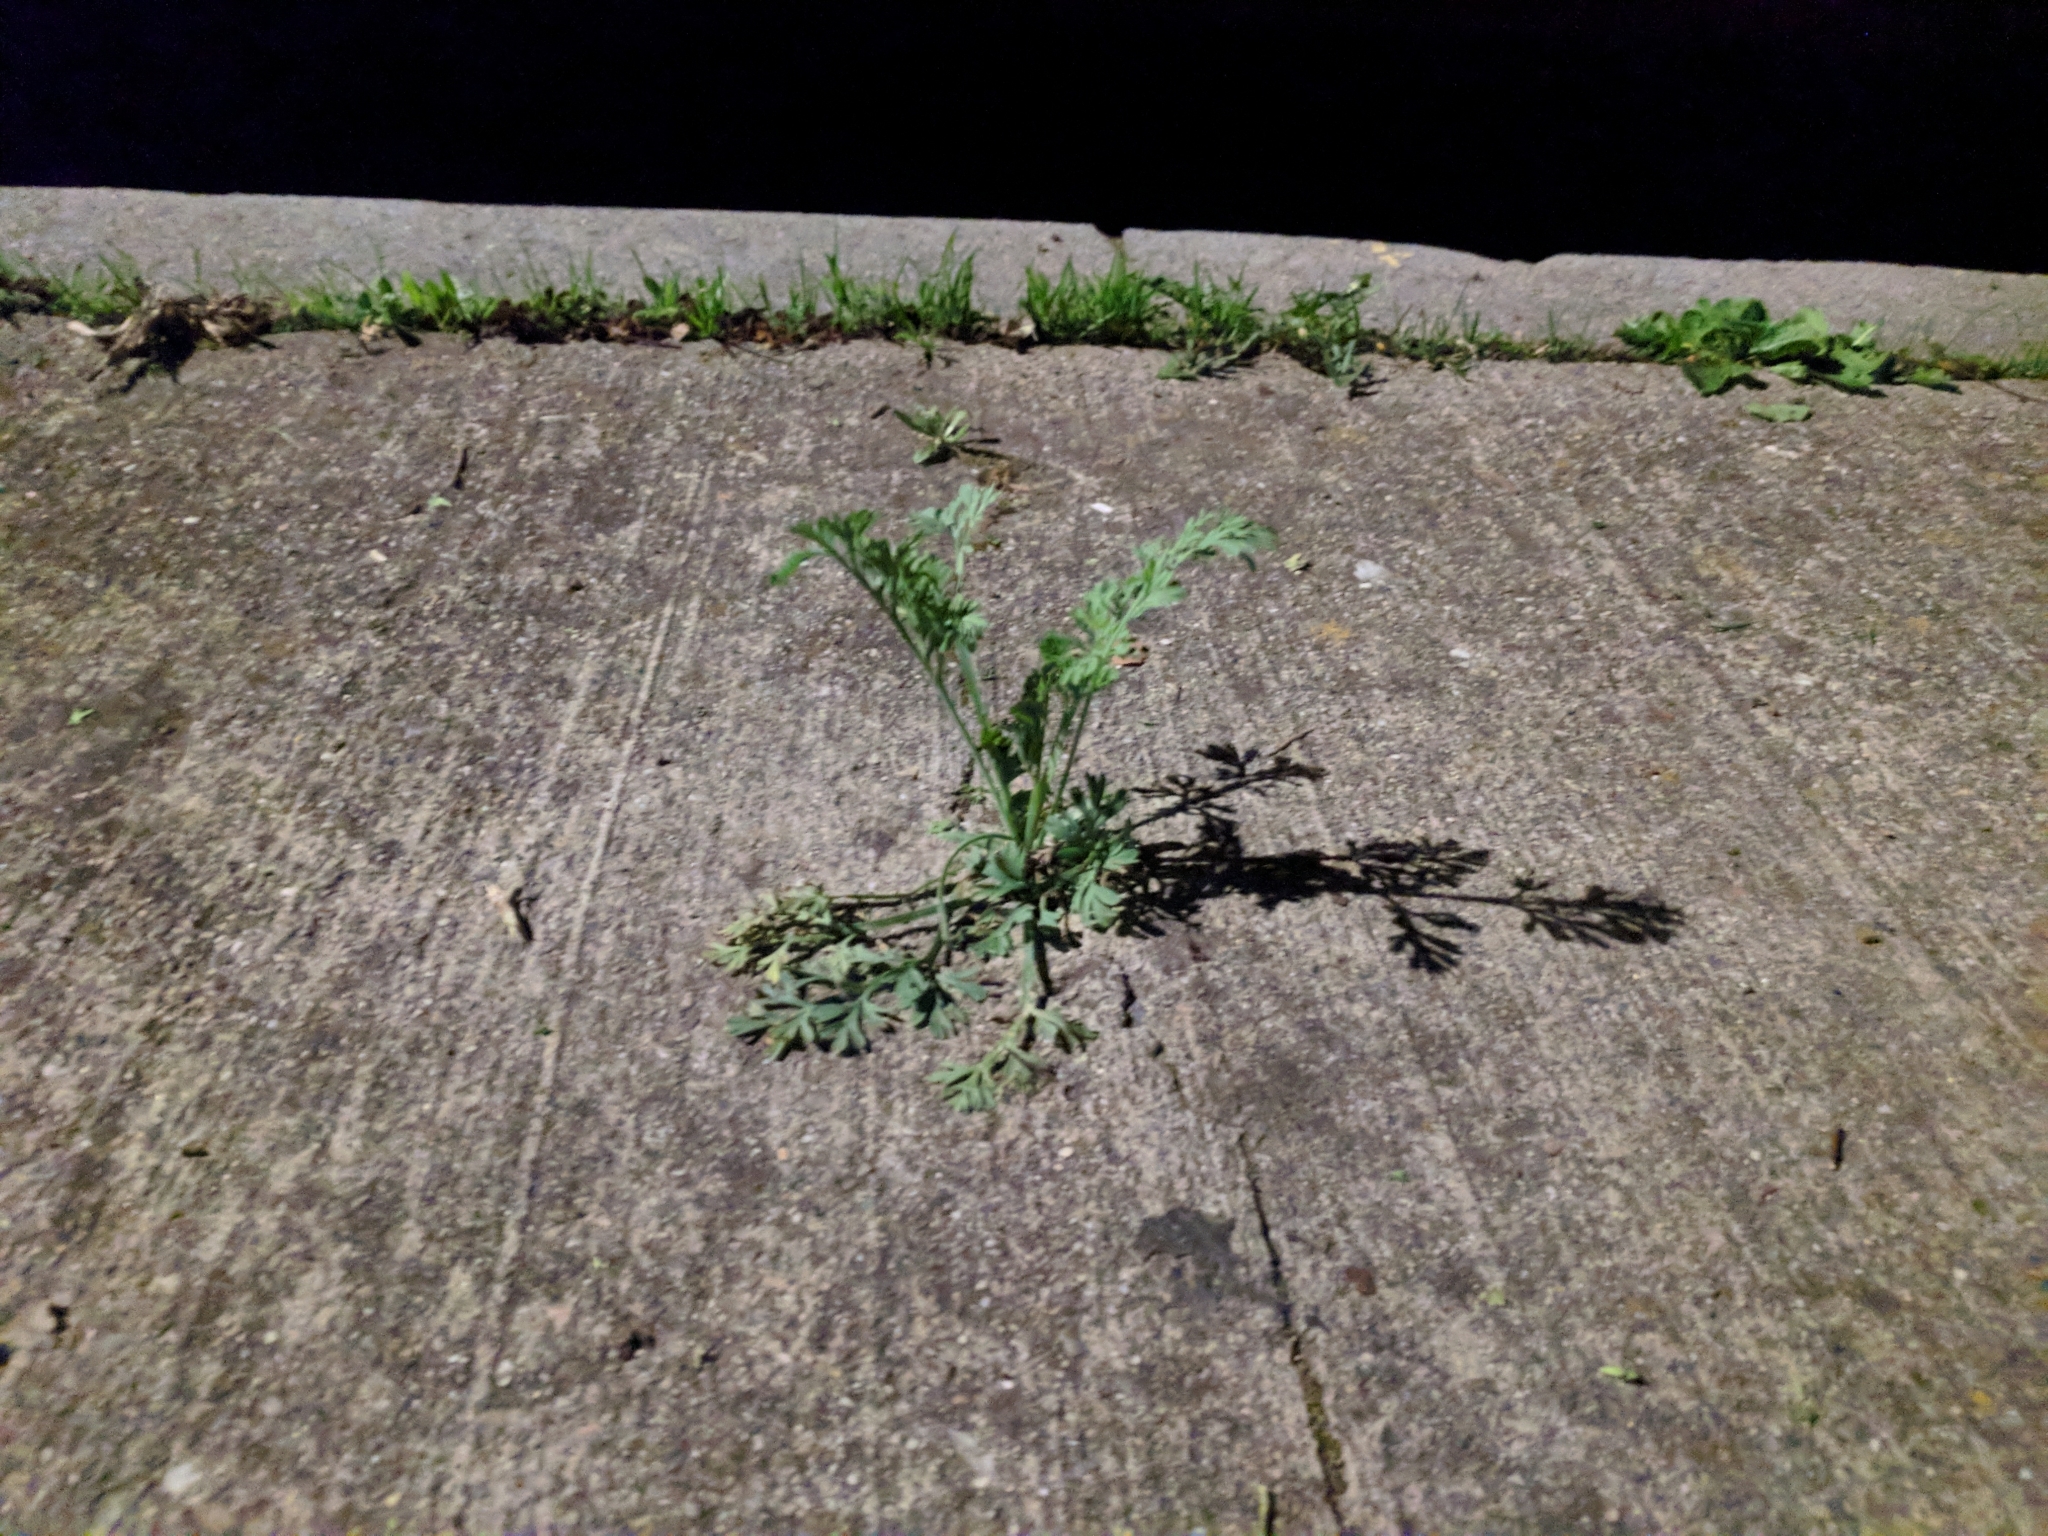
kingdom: Plantae
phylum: Tracheophyta
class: Magnoliopsida
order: Ranunculales
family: Papaveraceae
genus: Eschscholzia
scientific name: Eschscholzia californica
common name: California poppy
